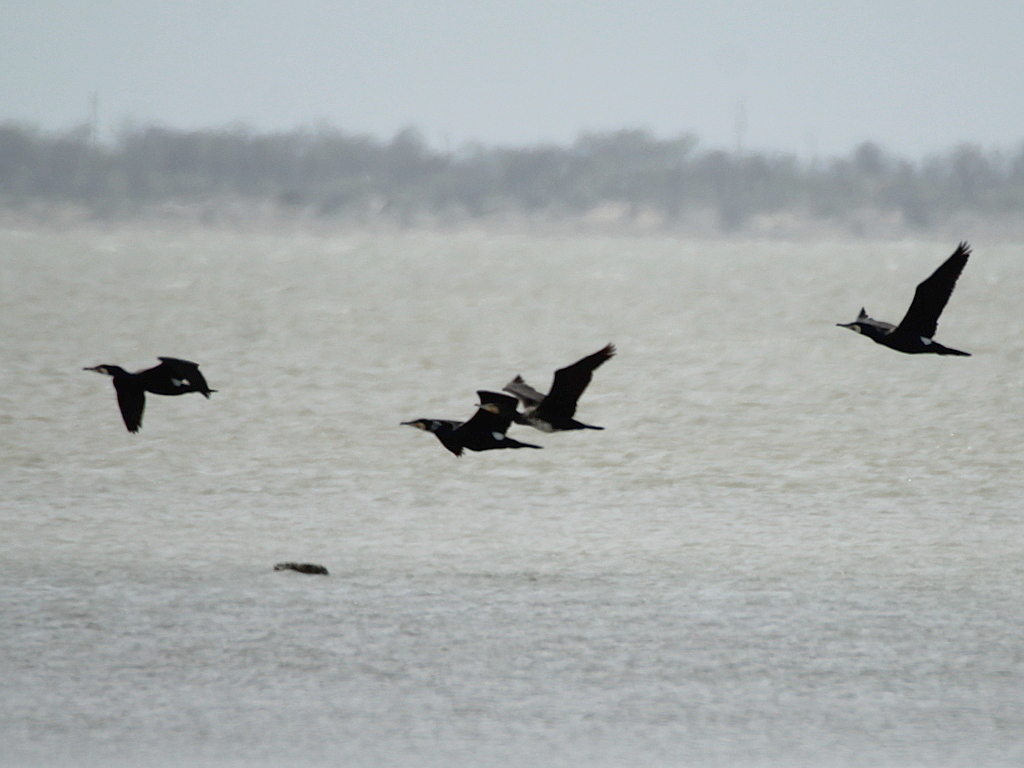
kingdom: Animalia
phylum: Chordata
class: Aves
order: Suliformes
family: Phalacrocoracidae
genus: Phalacrocorax
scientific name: Phalacrocorax carbo
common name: Great cormorant
